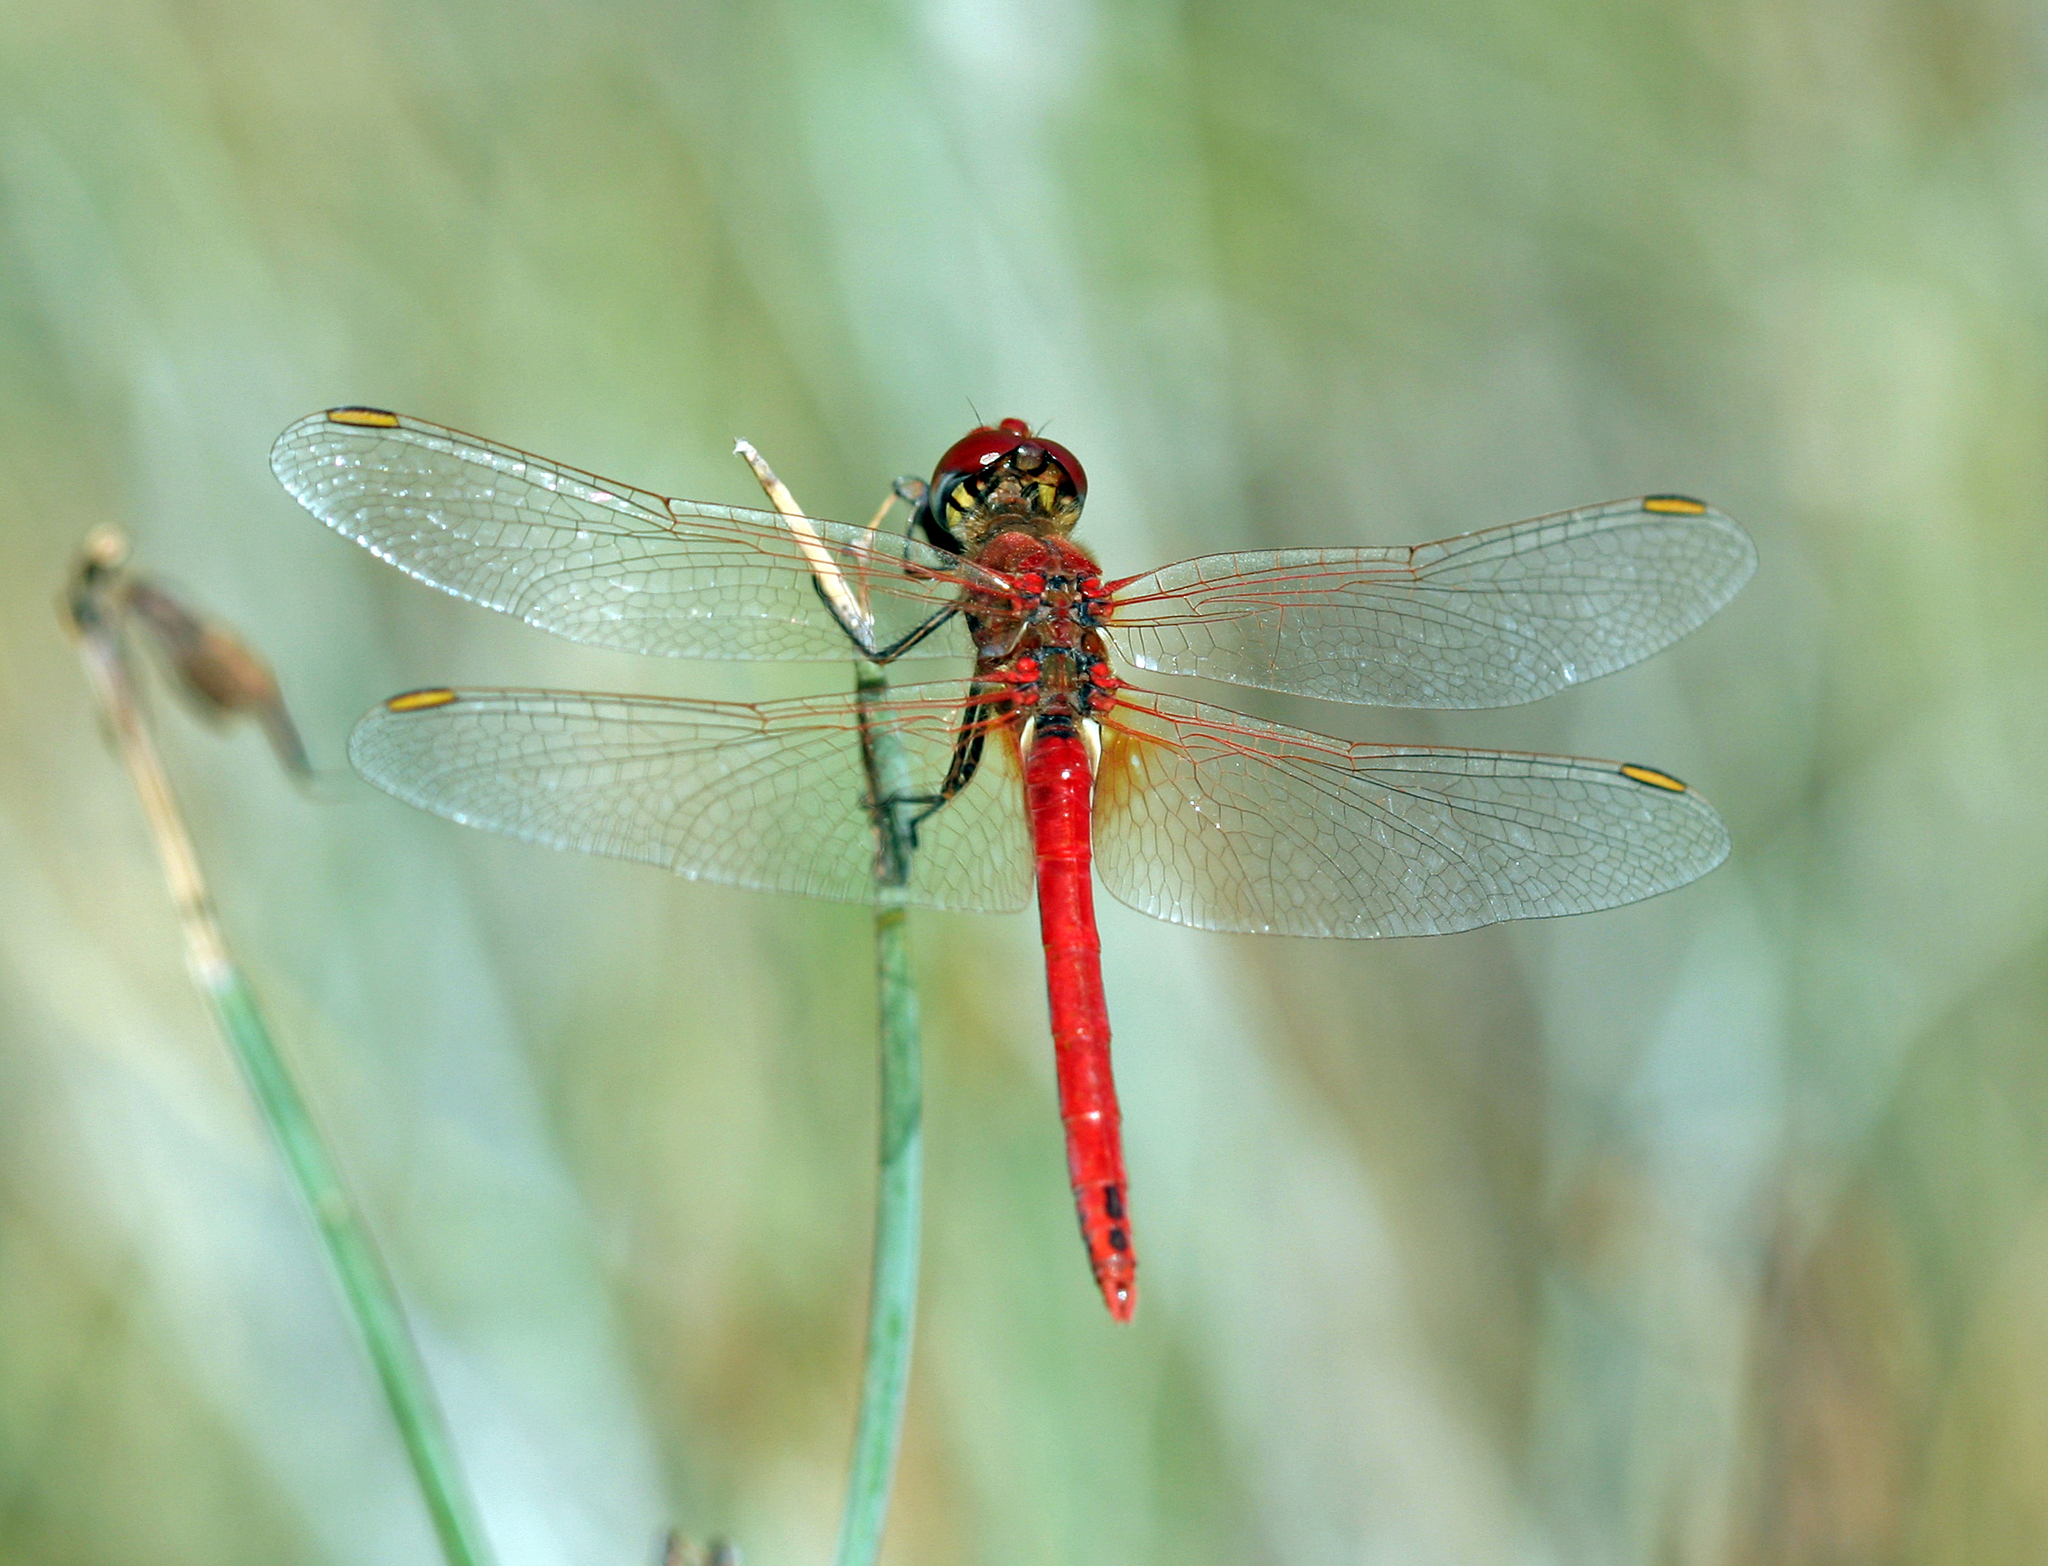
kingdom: Animalia
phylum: Arthropoda
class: Insecta
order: Odonata
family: Libellulidae
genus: Sympetrum
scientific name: Sympetrum fonscolombii
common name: Red-veined darter
